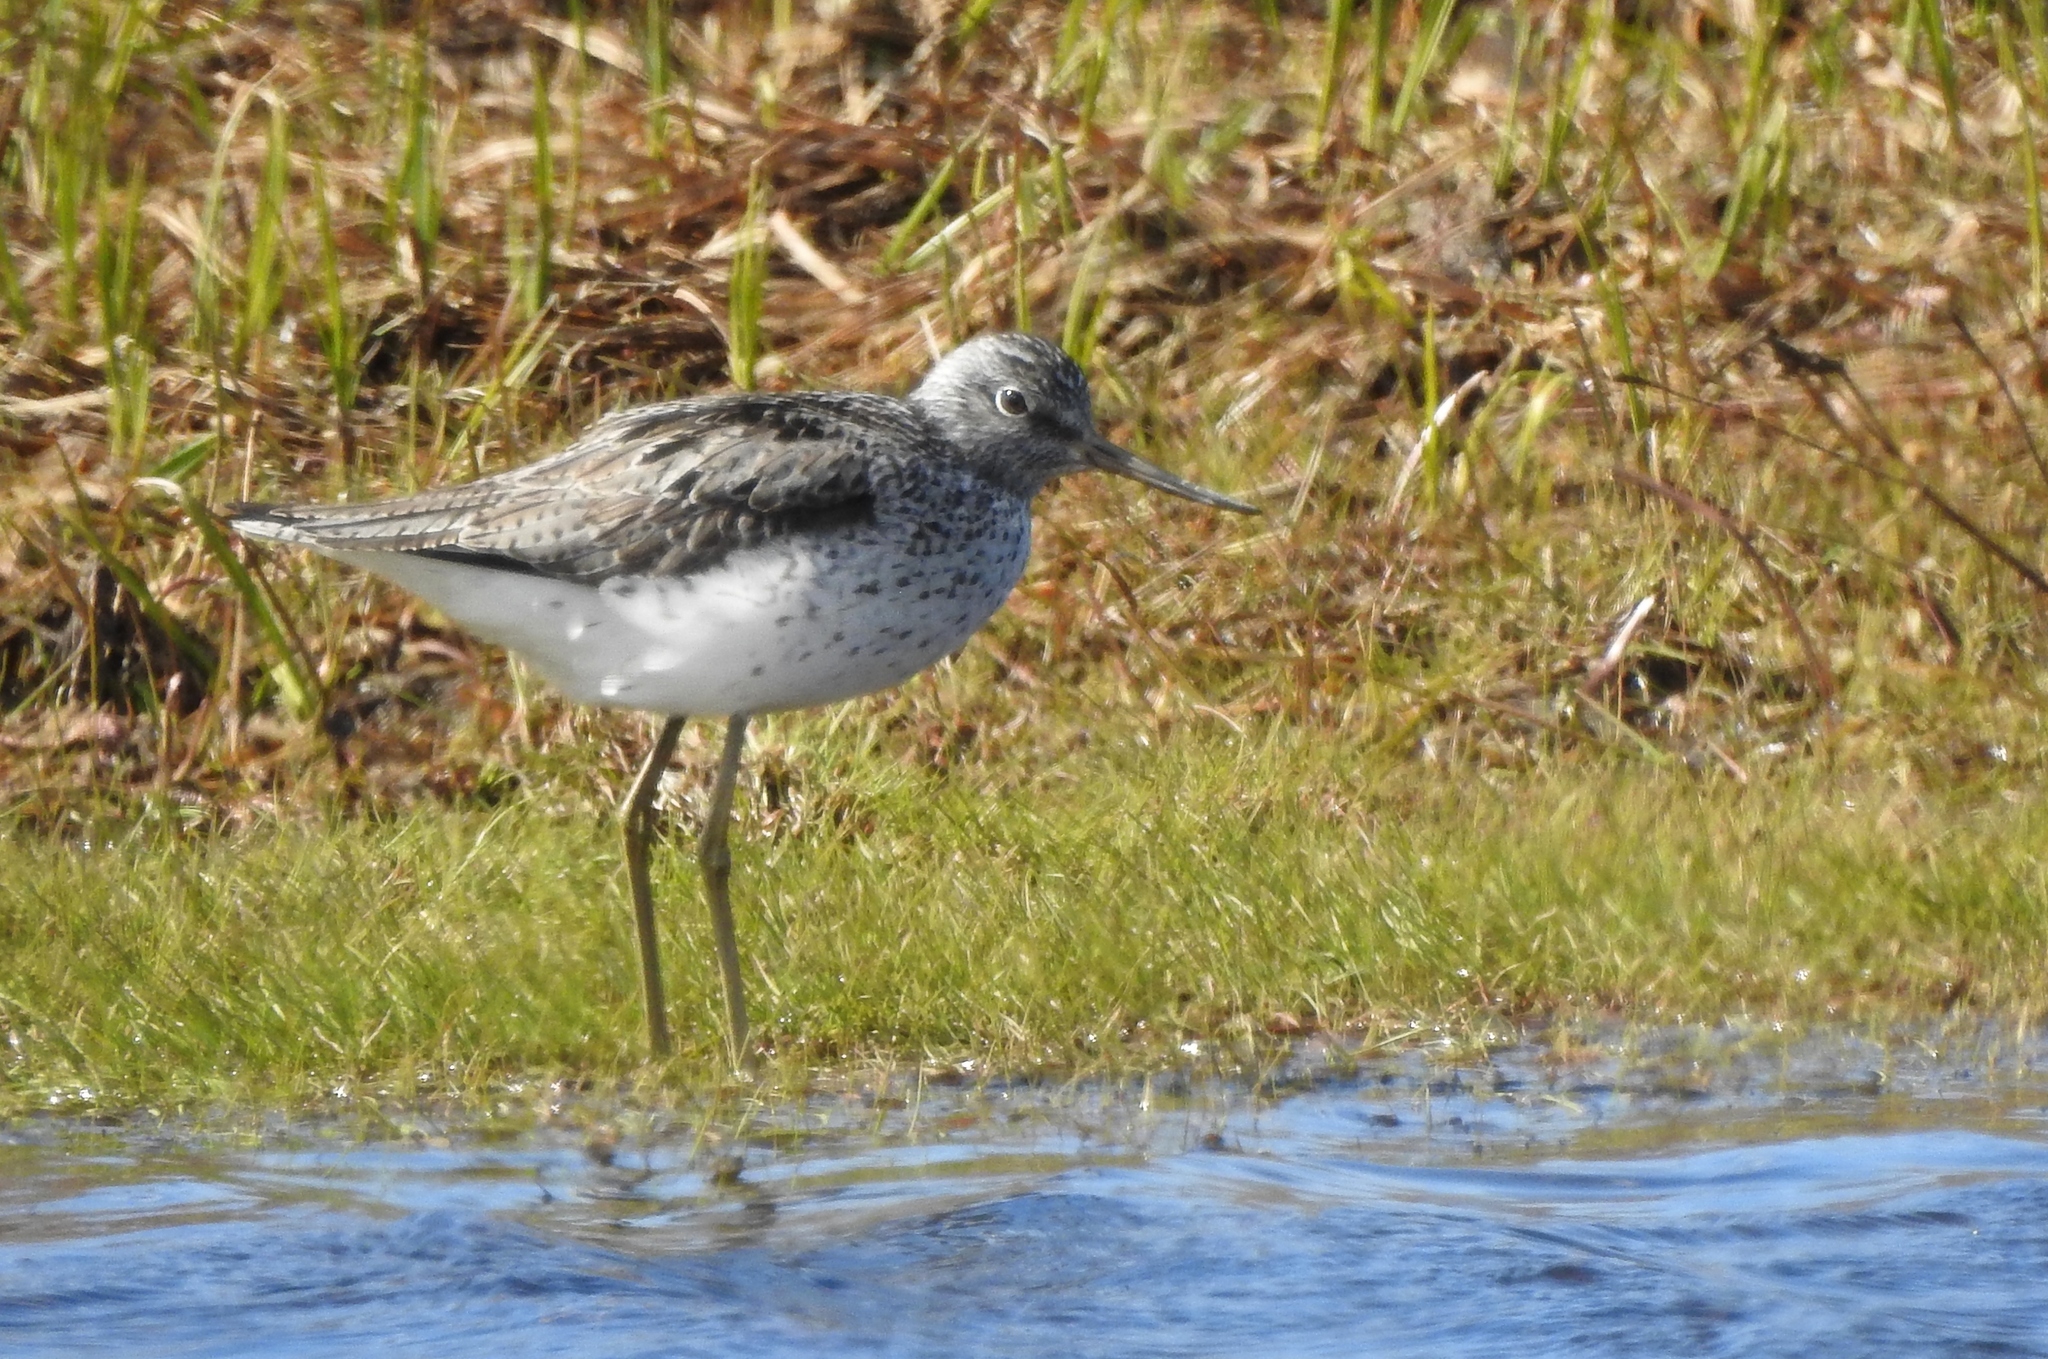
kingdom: Animalia
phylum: Chordata
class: Aves
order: Charadriiformes
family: Scolopacidae
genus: Tringa
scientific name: Tringa stagnatilis
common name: Marsh sandpiper
